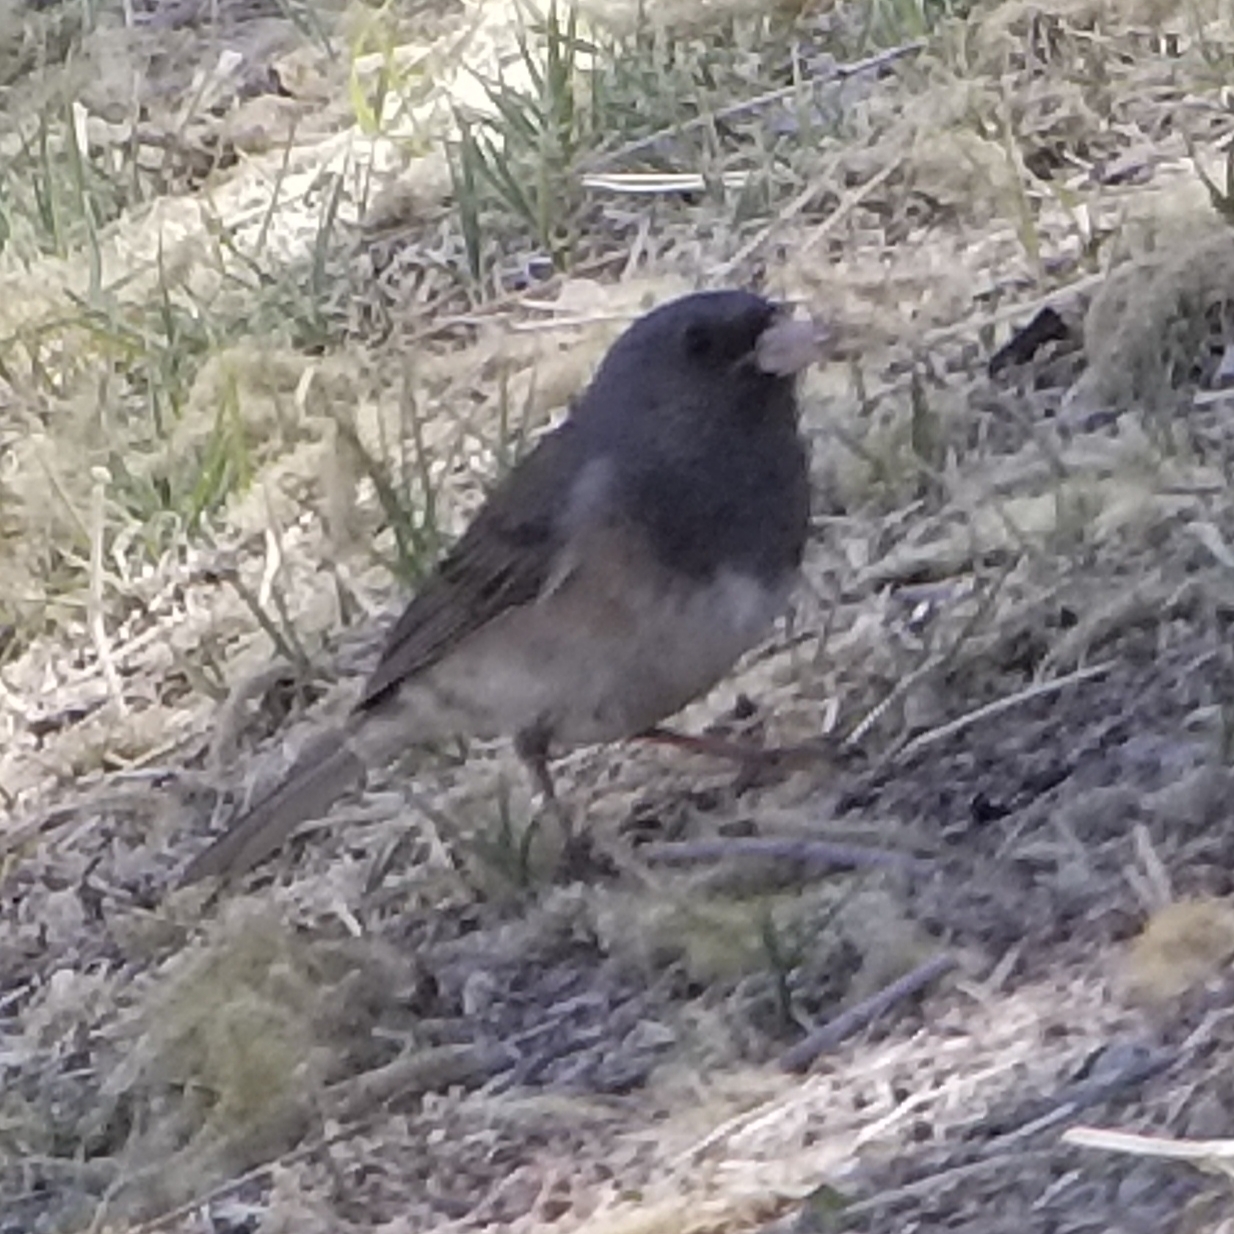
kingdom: Animalia
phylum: Chordata
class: Aves
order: Passeriformes
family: Passerellidae
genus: Junco
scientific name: Junco hyemalis
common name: Dark-eyed junco
